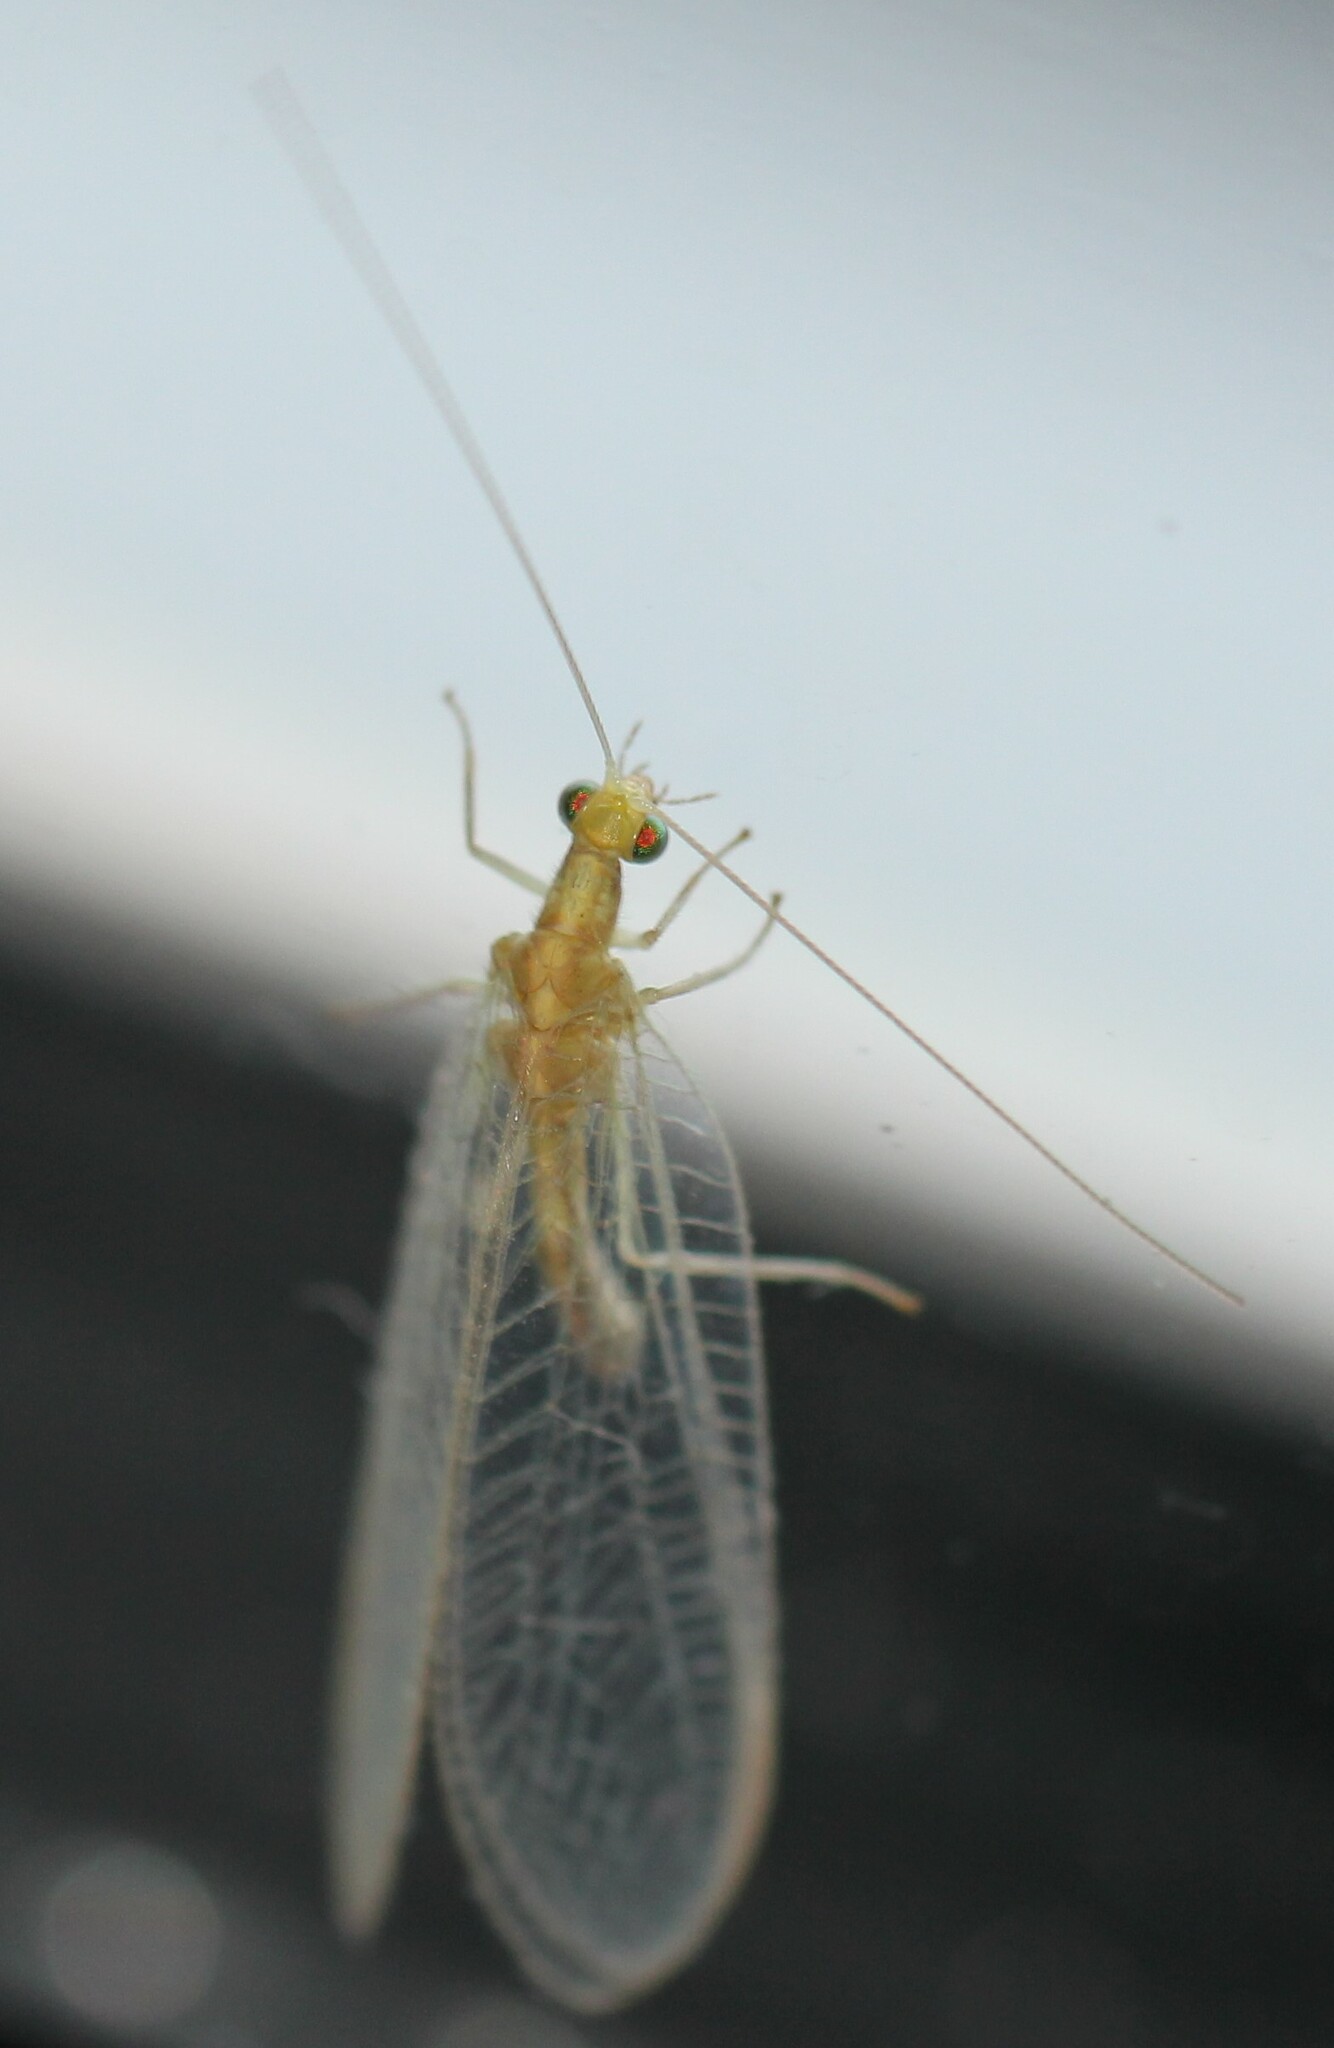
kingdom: Animalia
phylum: Arthropoda
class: Insecta
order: Neuroptera
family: Chrysopidae
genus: Chrysoperla
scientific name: Chrysoperla
